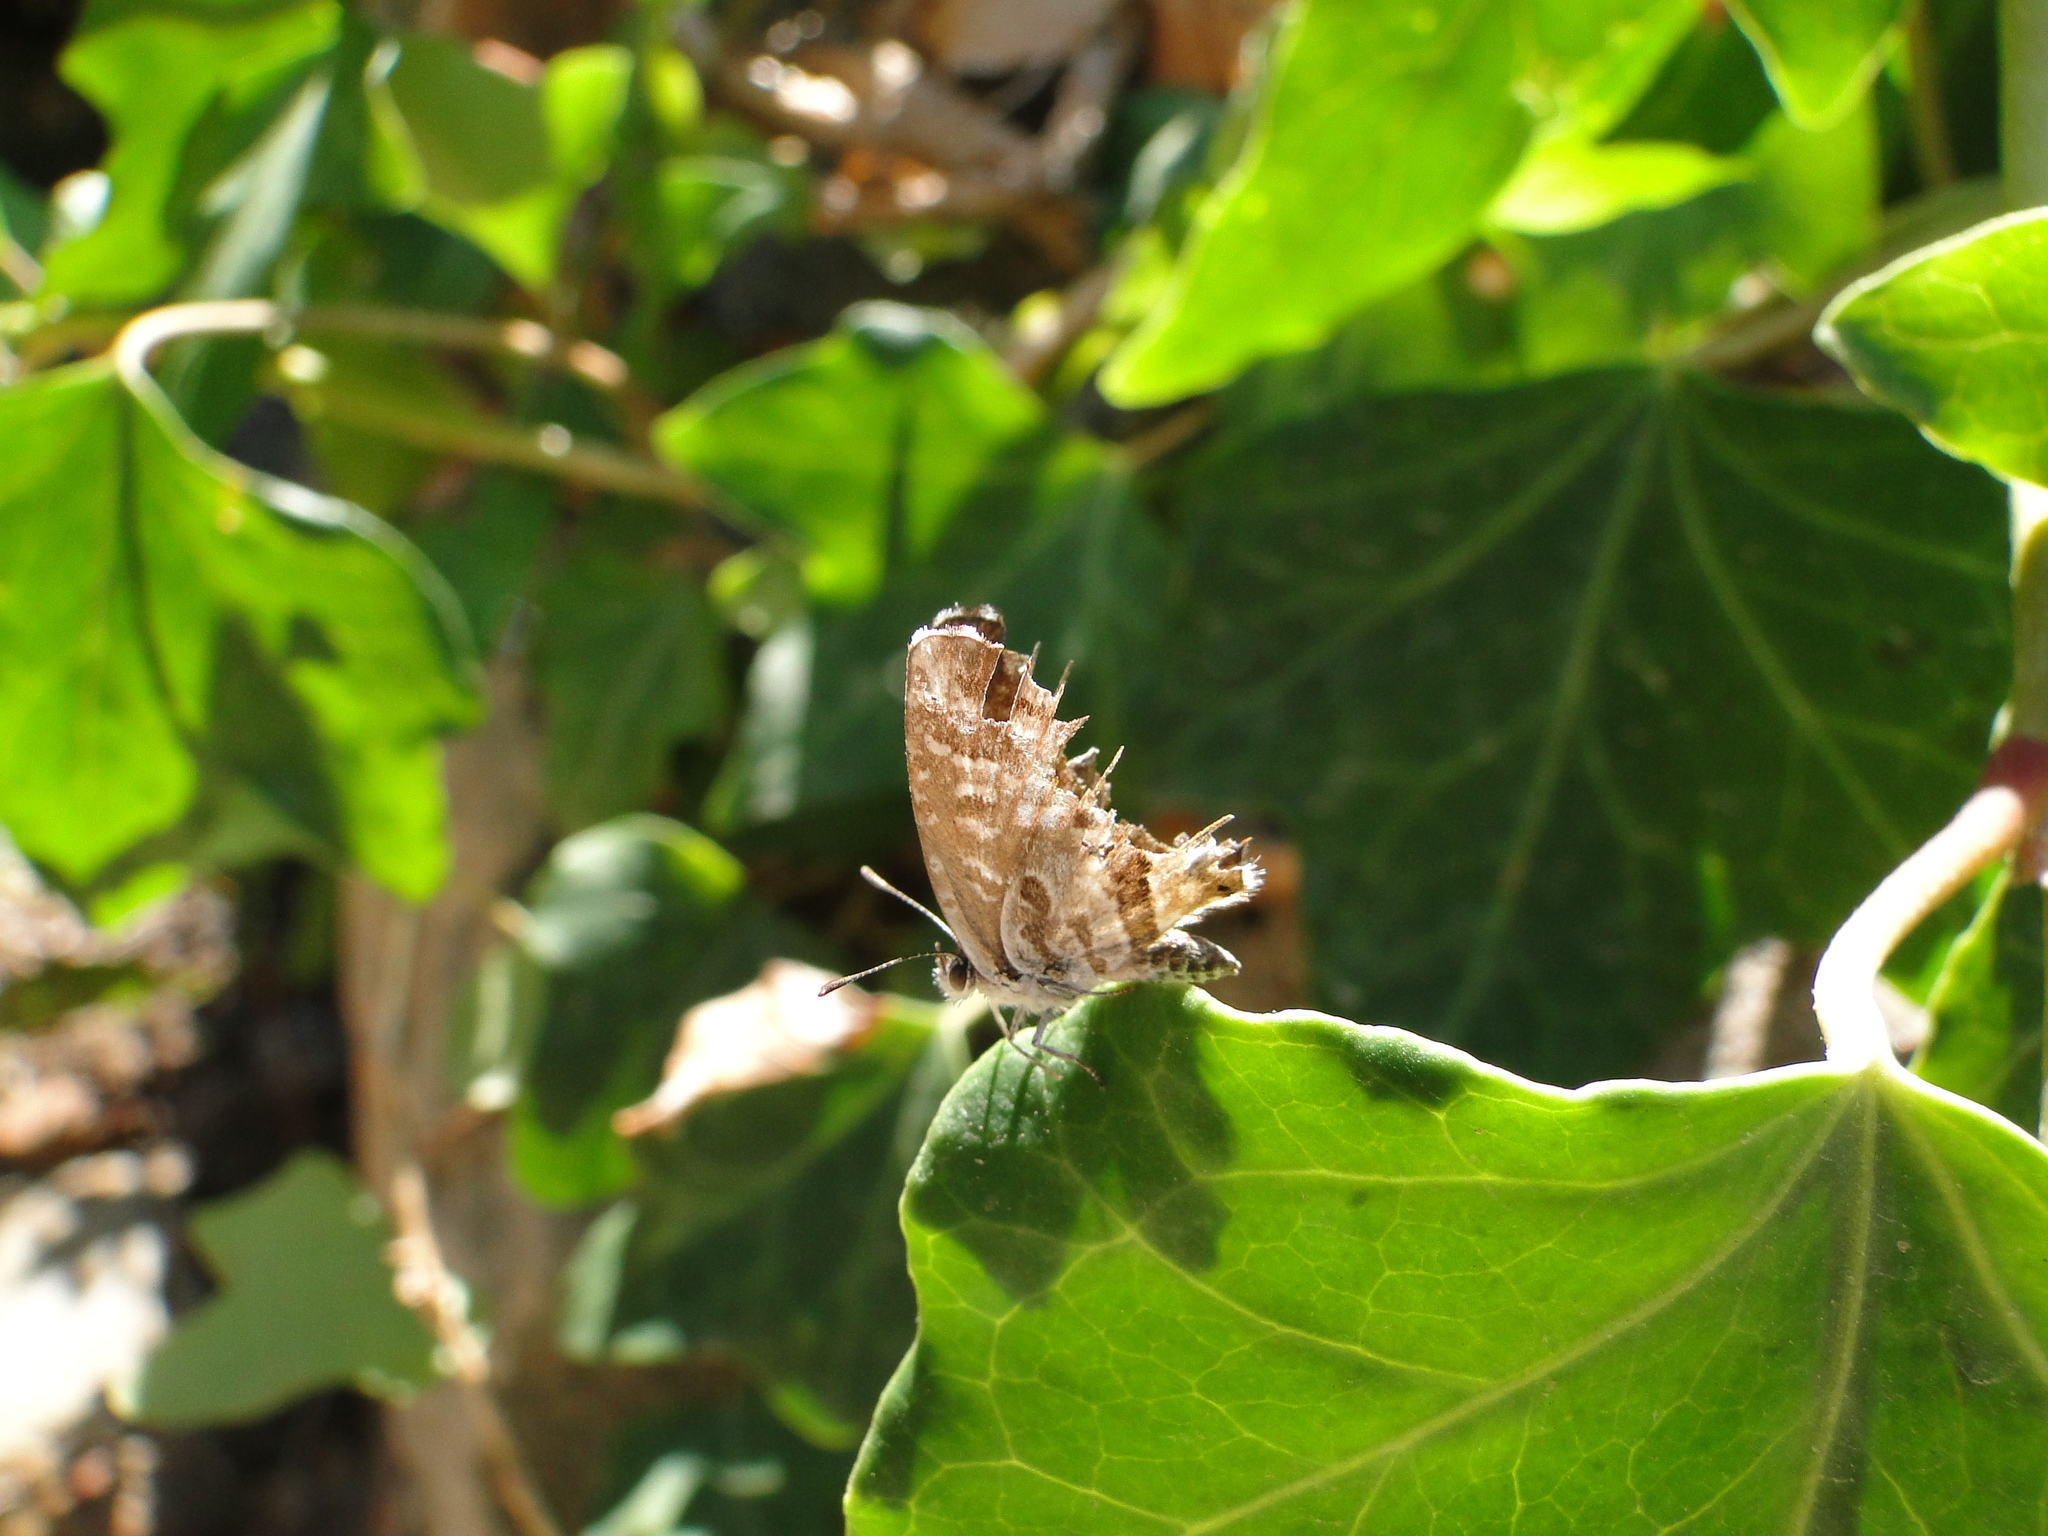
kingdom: Animalia
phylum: Arthropoda
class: Insecta
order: Lepidoptera
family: Lycaenidae
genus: Cacyreus
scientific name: Cacyreus marshalli
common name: Geranium bronze
